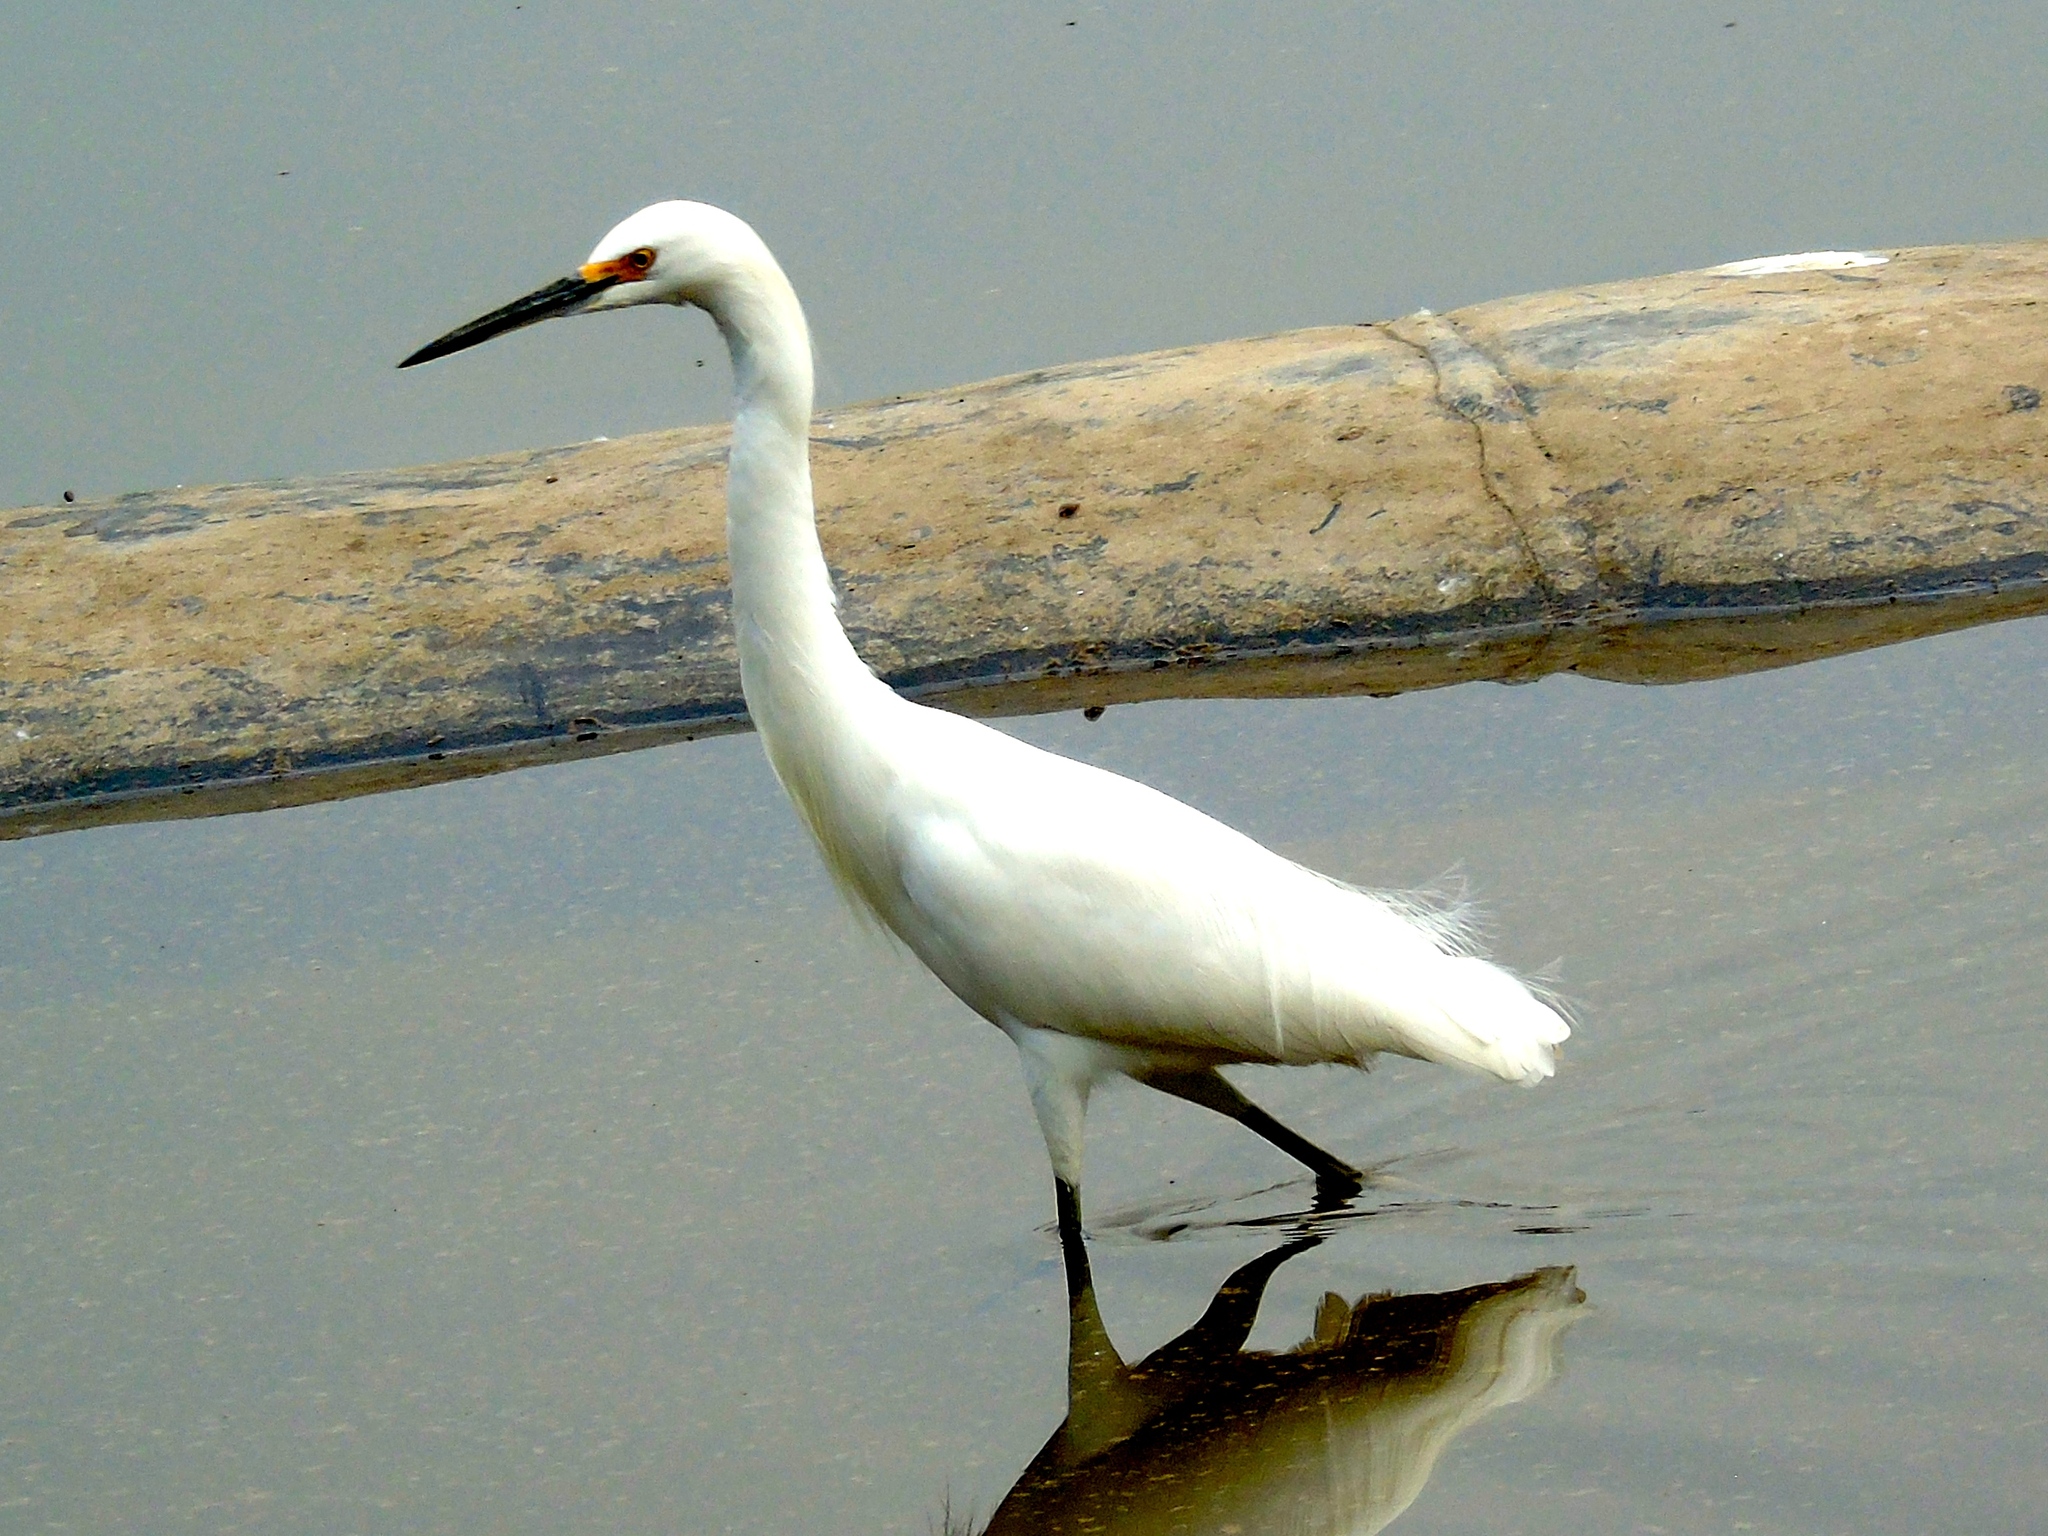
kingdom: Animalia
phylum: Chordata
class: Aves
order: Pelecaniformes
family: Ardeidae
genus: Egretta
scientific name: Egretta thula
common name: Snowy egret
